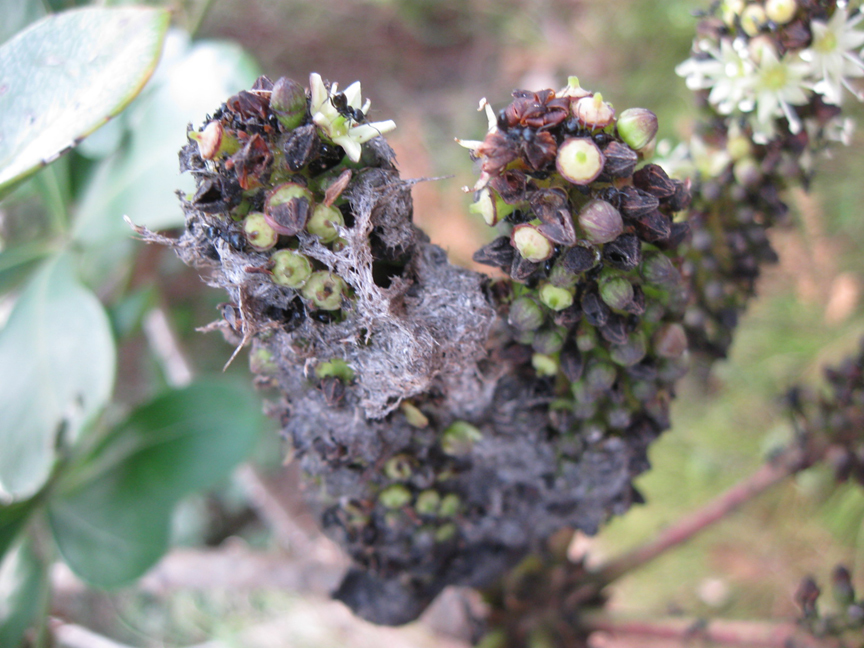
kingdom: Animalia
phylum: Arthropoda
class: Insecta
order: Hymenoptera
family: Formicidae
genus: Crematogaster
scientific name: Crematogaster peringueyi
